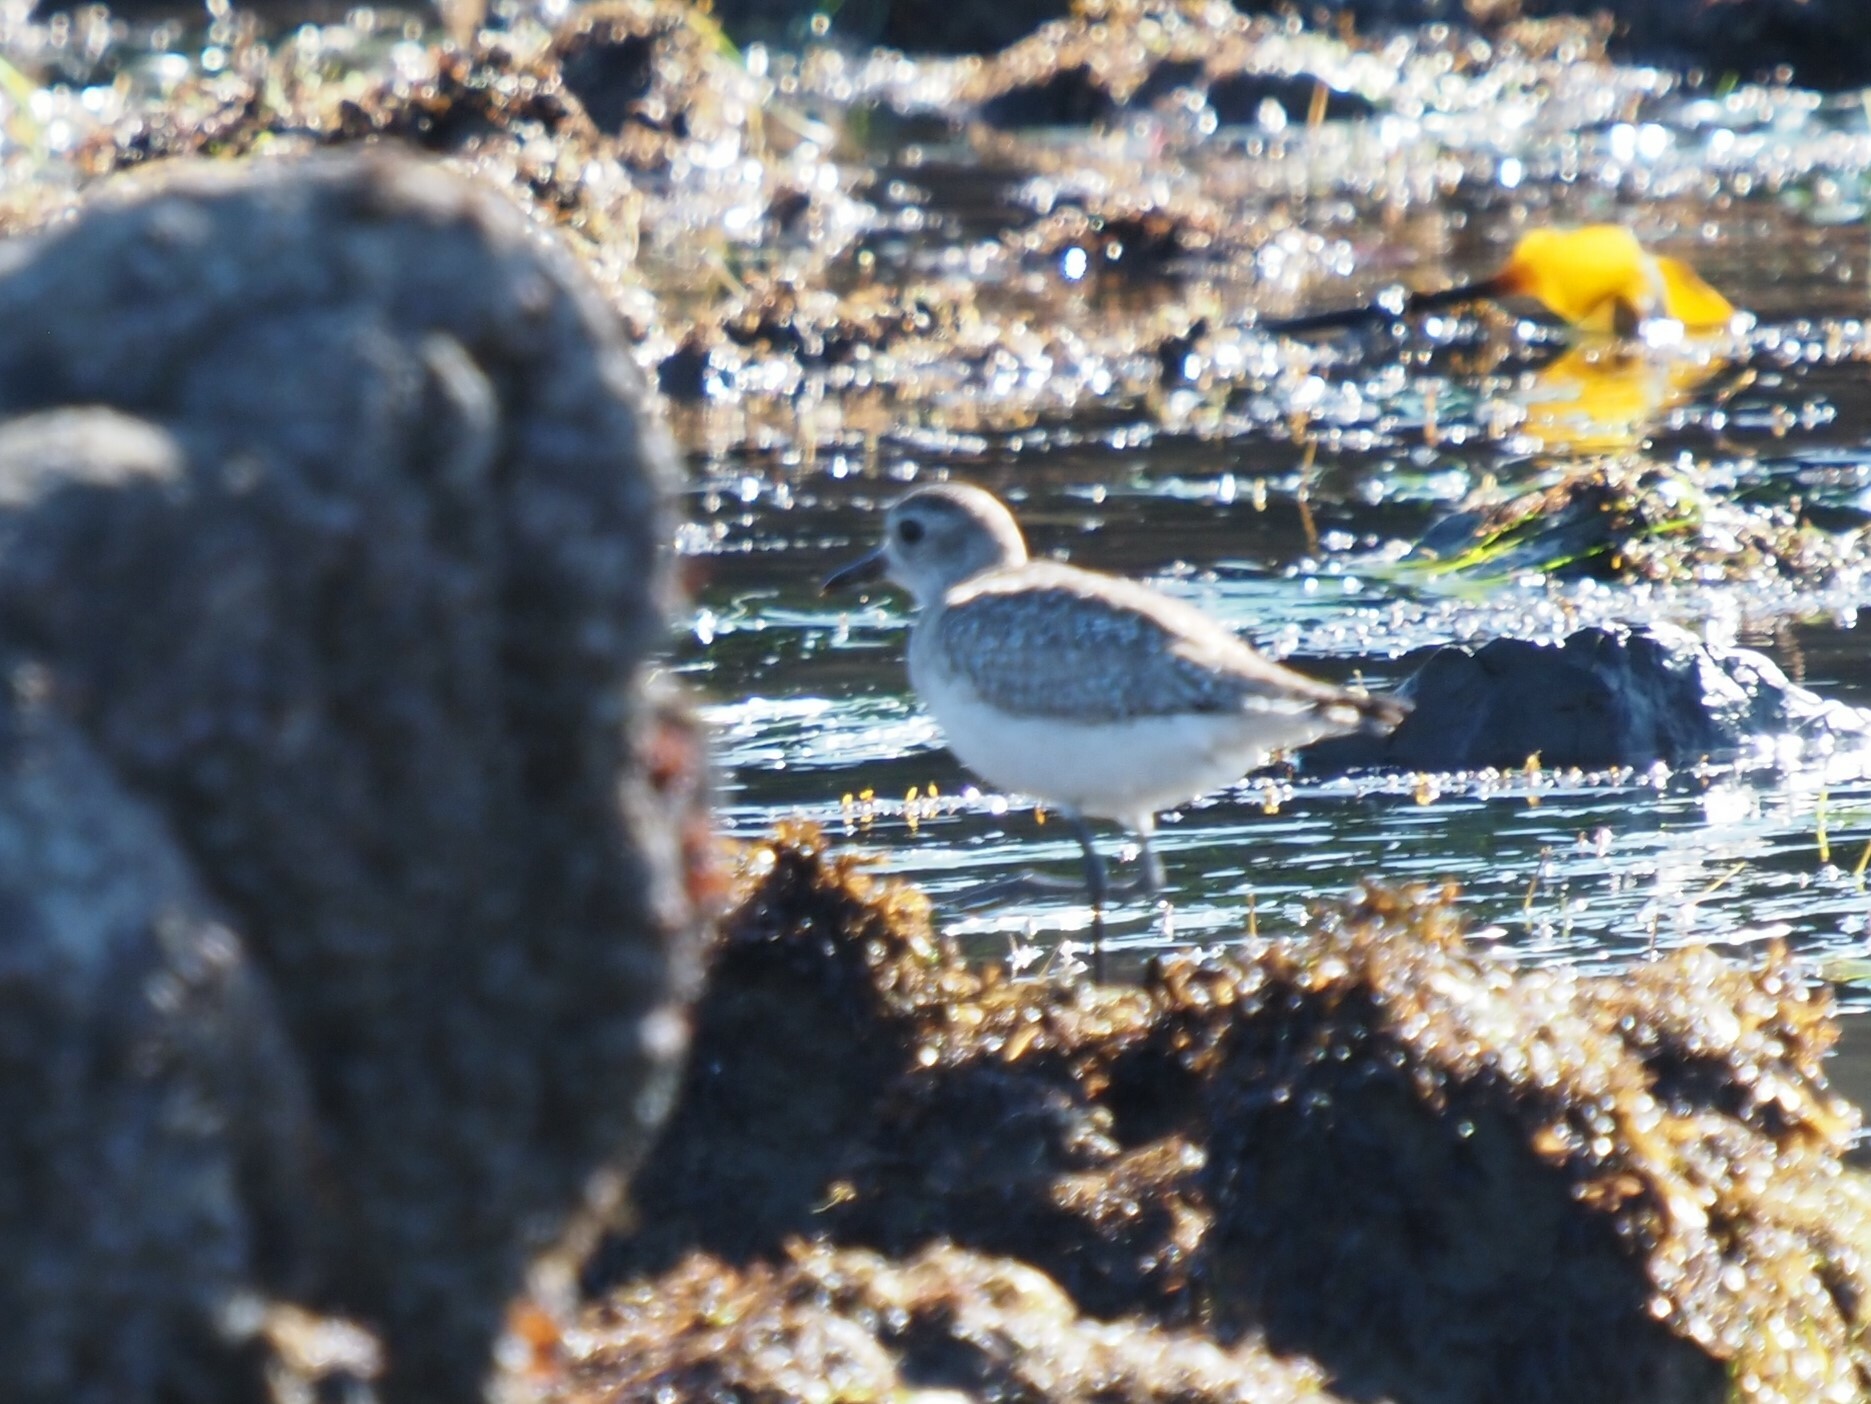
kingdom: Animalia
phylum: Chordata
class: Aves
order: Charadriiformes
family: Charadriidae
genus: Pluvialis
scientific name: Pluvialis squatarola
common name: Grey plover
